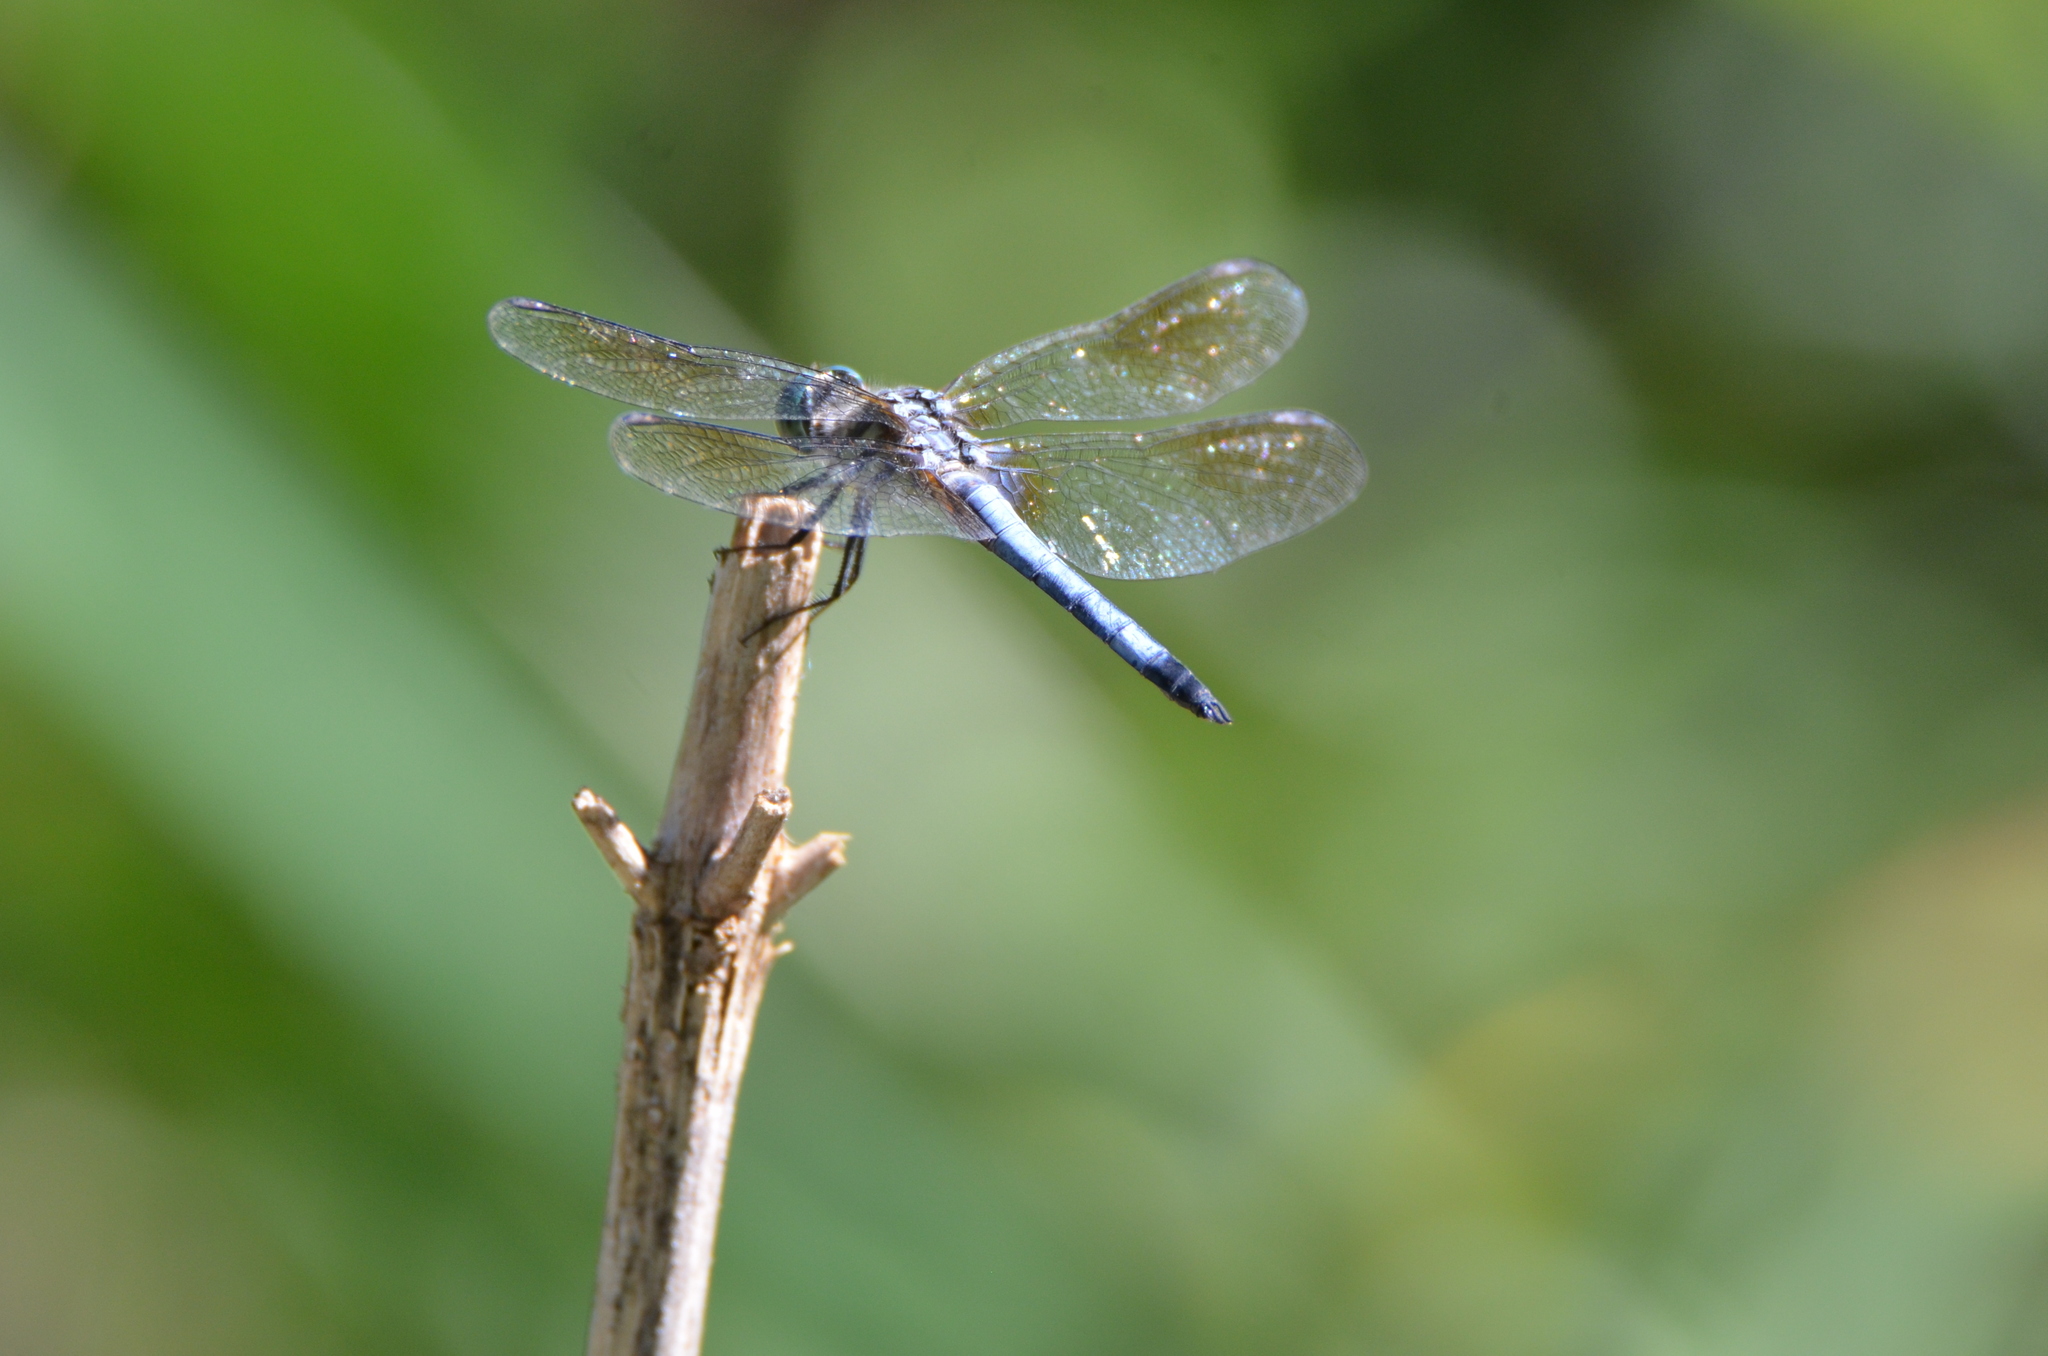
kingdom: Animalia
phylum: Arthropoda
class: Insecta
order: Odonata
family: Libellulidae
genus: Pachydiplax
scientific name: Pachydiplax longipennis
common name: Blue dasher
